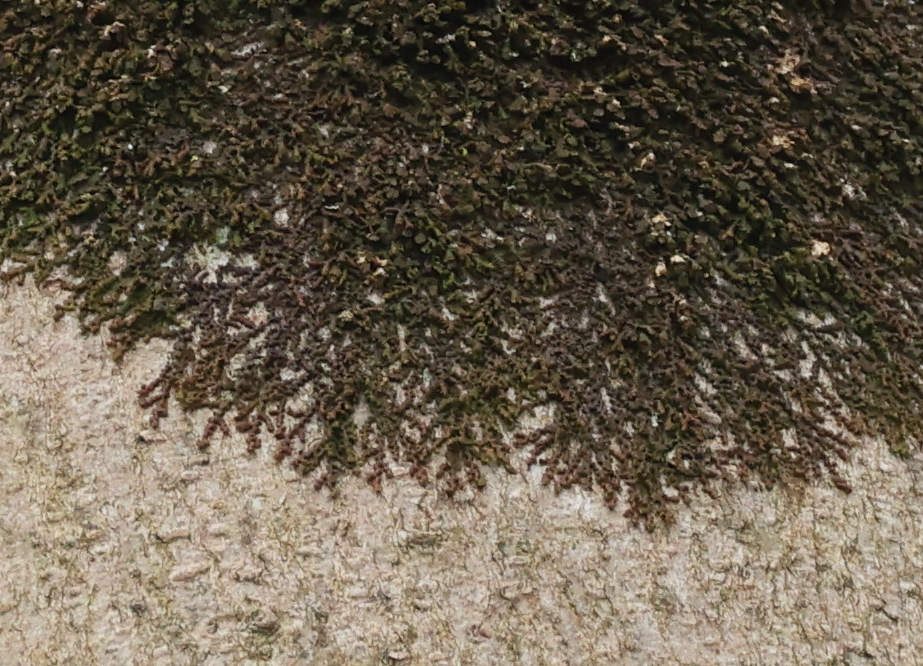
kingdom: Plantae
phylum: Marchantiophyta
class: Jungermanniopsida
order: Porellales
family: Frullaniaceae
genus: Frullania
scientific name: Frullania dilatata
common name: Dilated scalewort
